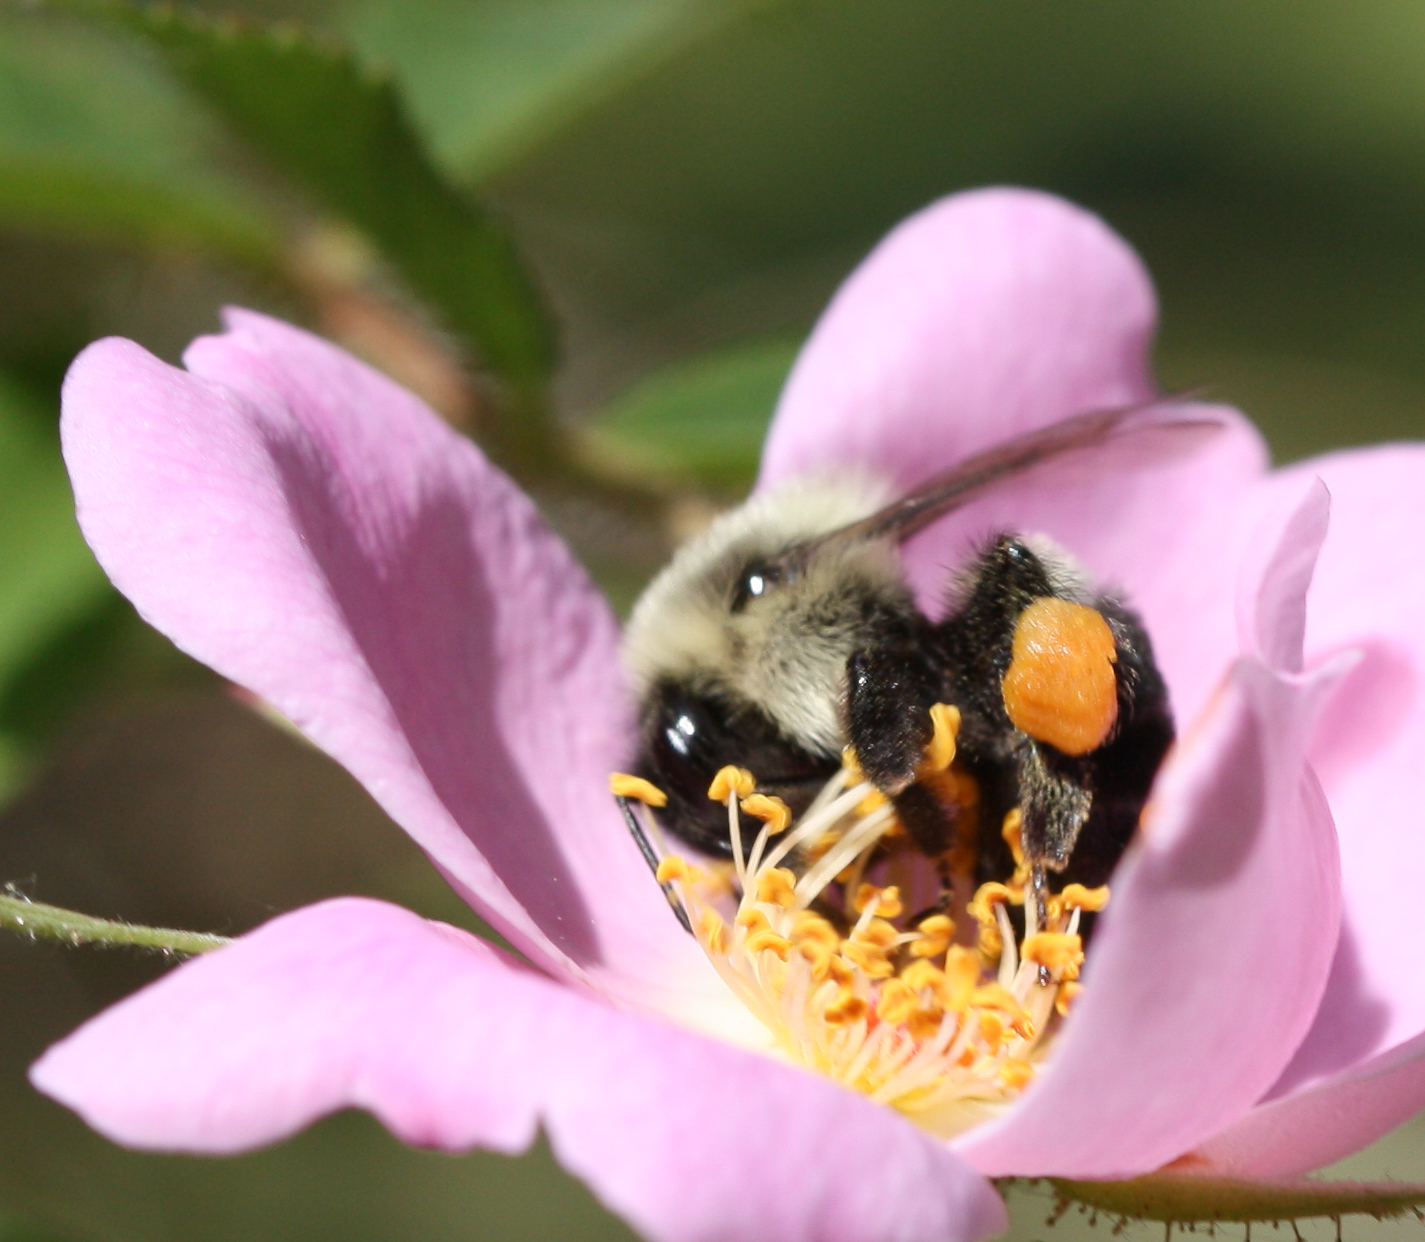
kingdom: Animalia
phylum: Arthropoda
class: Insecta
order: Hymenoptera
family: Apidae
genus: Bombus
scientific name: Bombus impatiens
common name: Common eastern bumble bee
